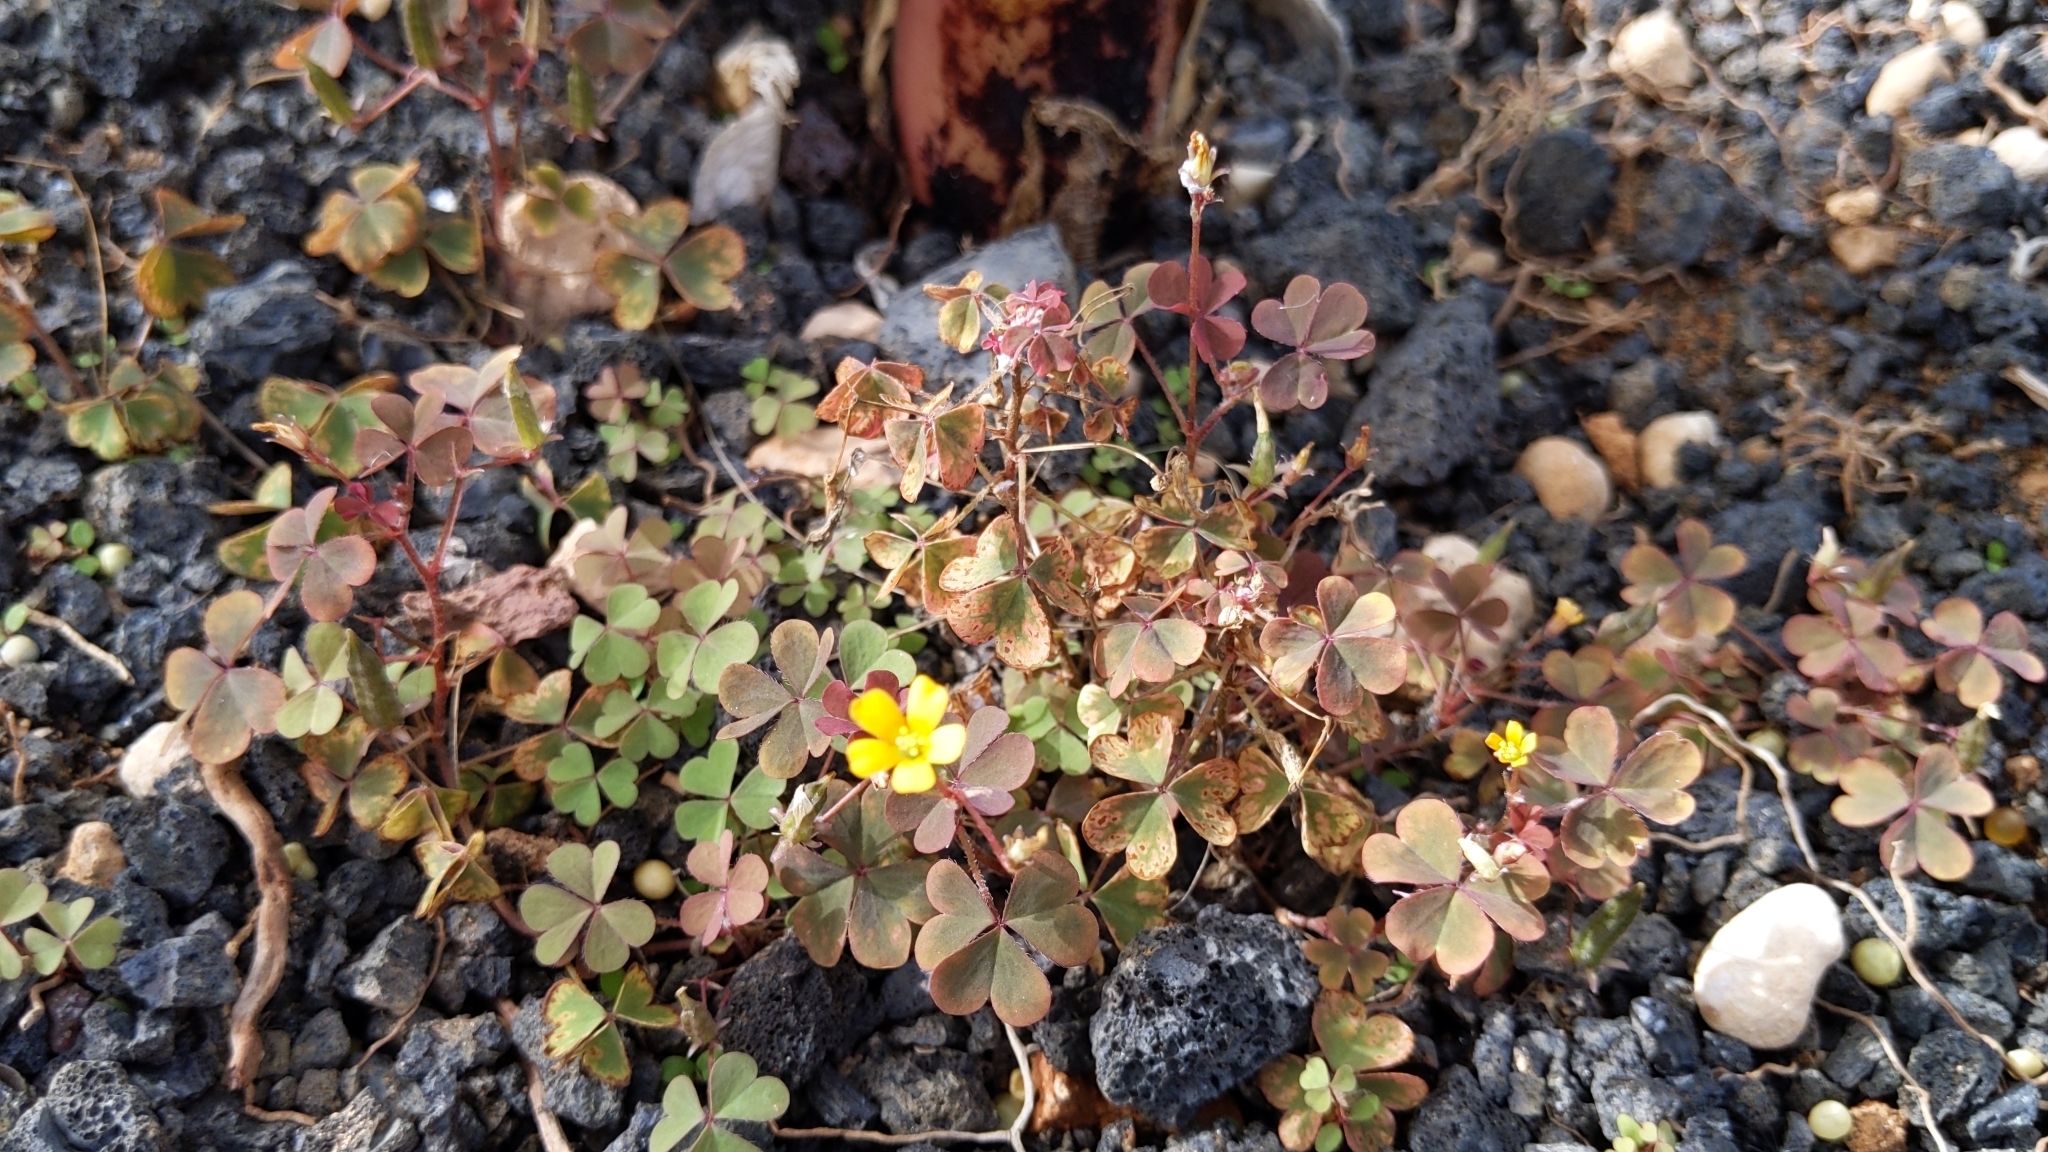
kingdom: Plantae
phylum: Tracheophyta
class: Magnoliopsida
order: Oxalidales
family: Oxalidaceae
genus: Oxalis
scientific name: Oxalis corniculata
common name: Procumbent yellow-sorrel
